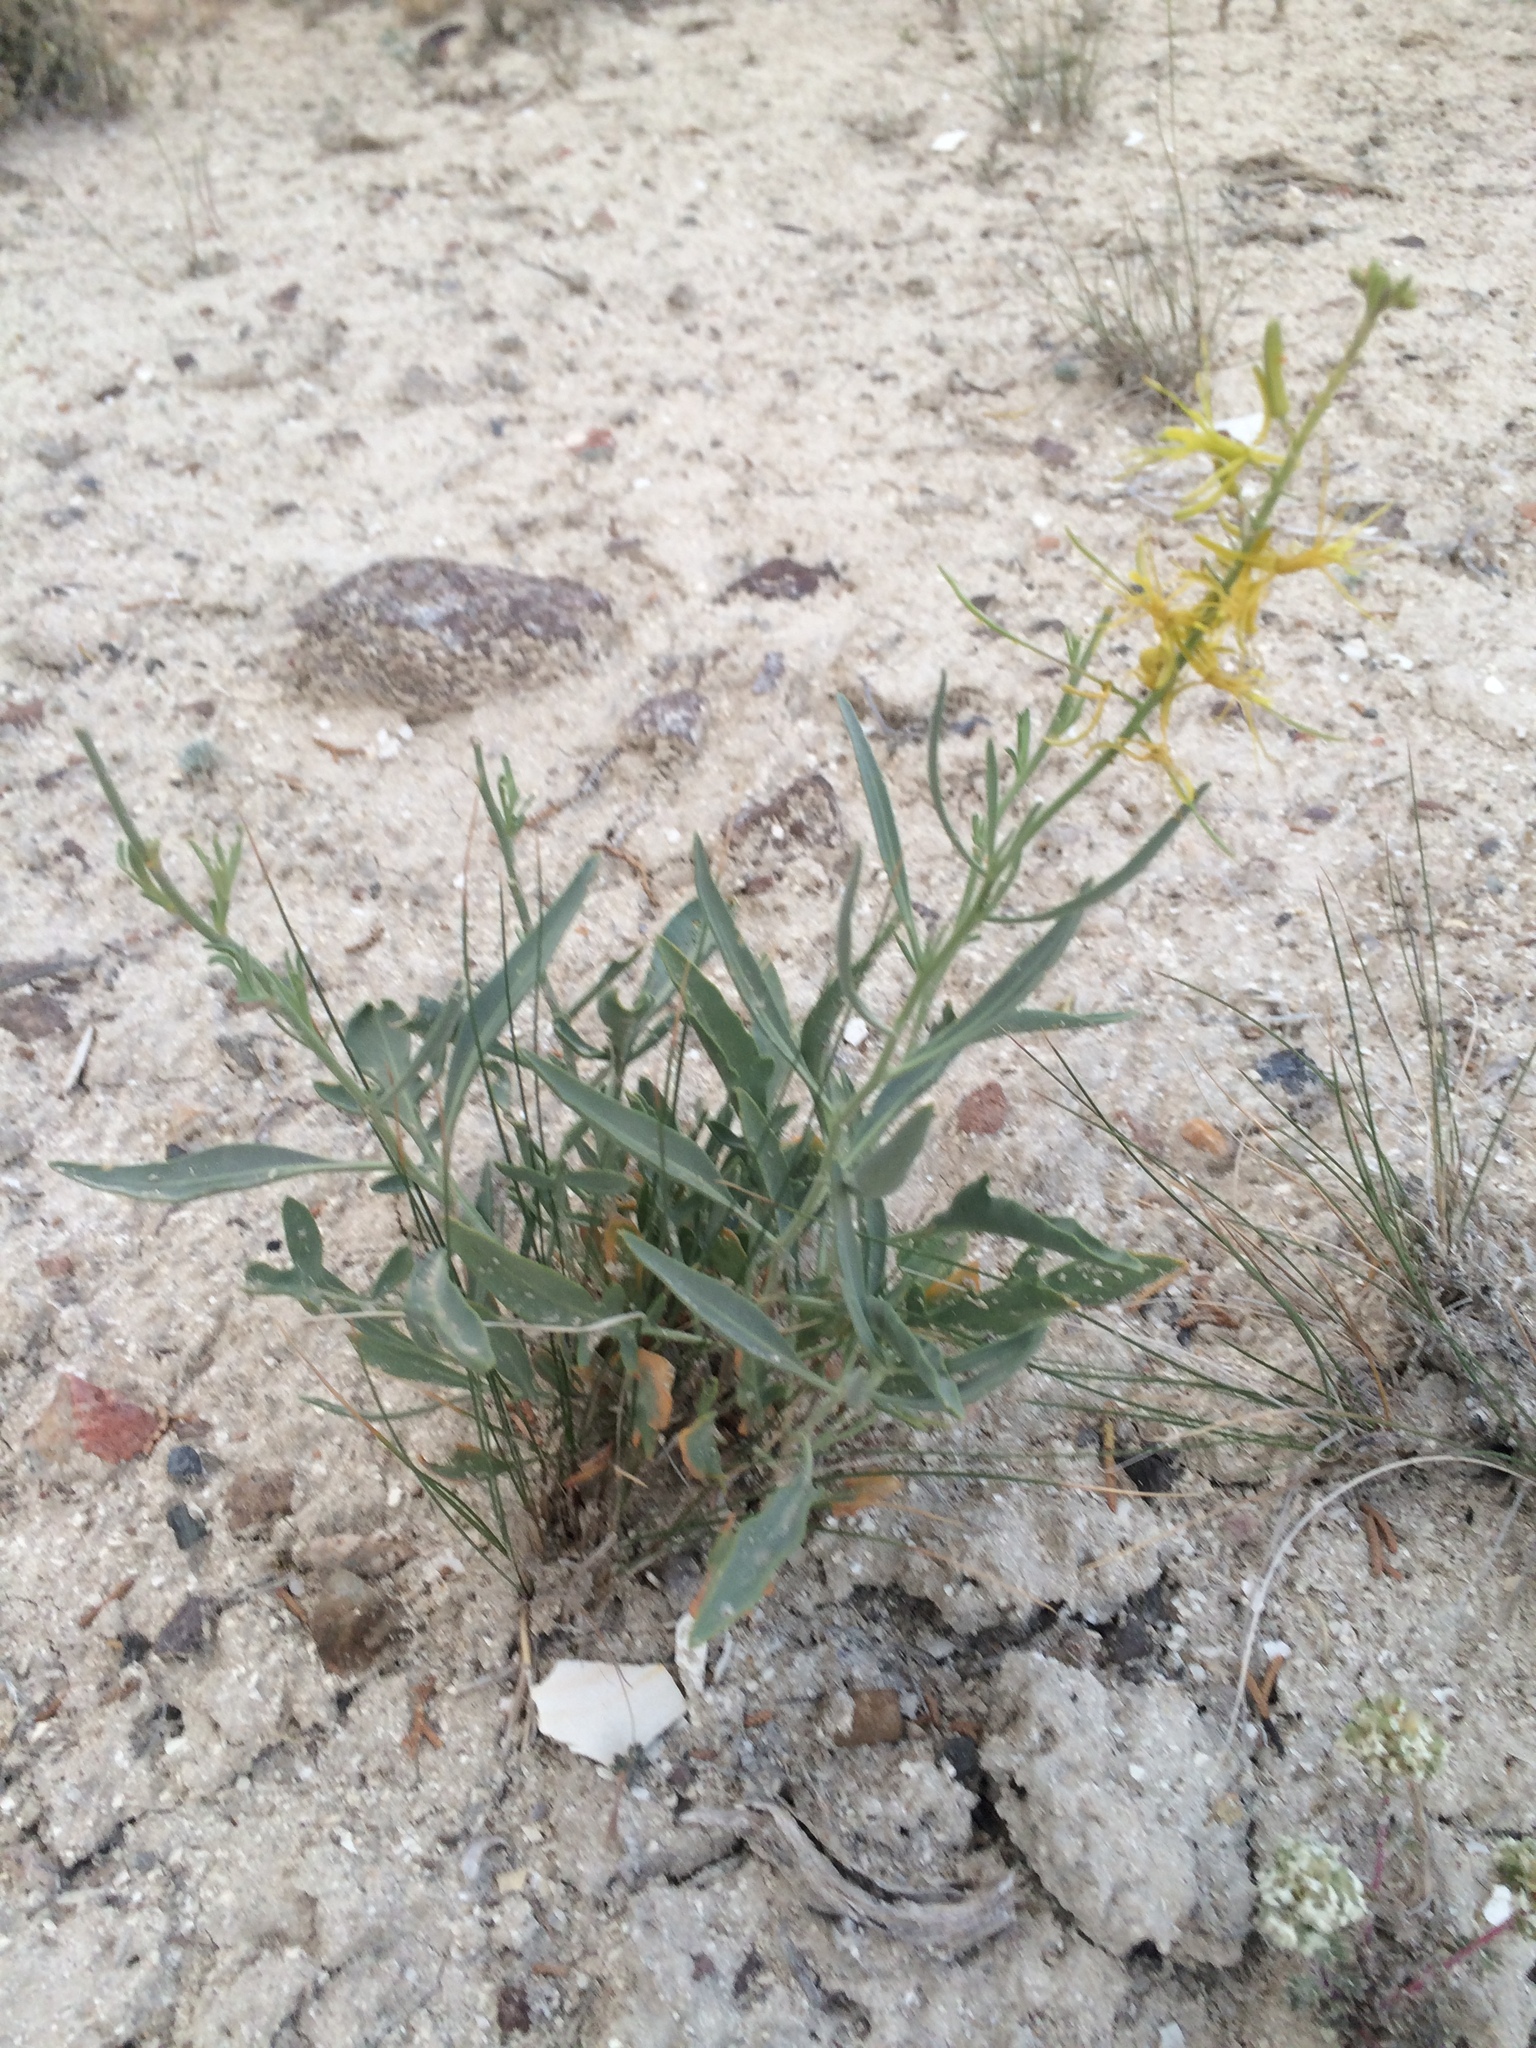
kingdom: Plantae
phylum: Tracheophyta
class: Magnoliopsida
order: Brassicales
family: Brassicaceae
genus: Stanleya
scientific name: Stanleya pinnata
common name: Prince's-plume
